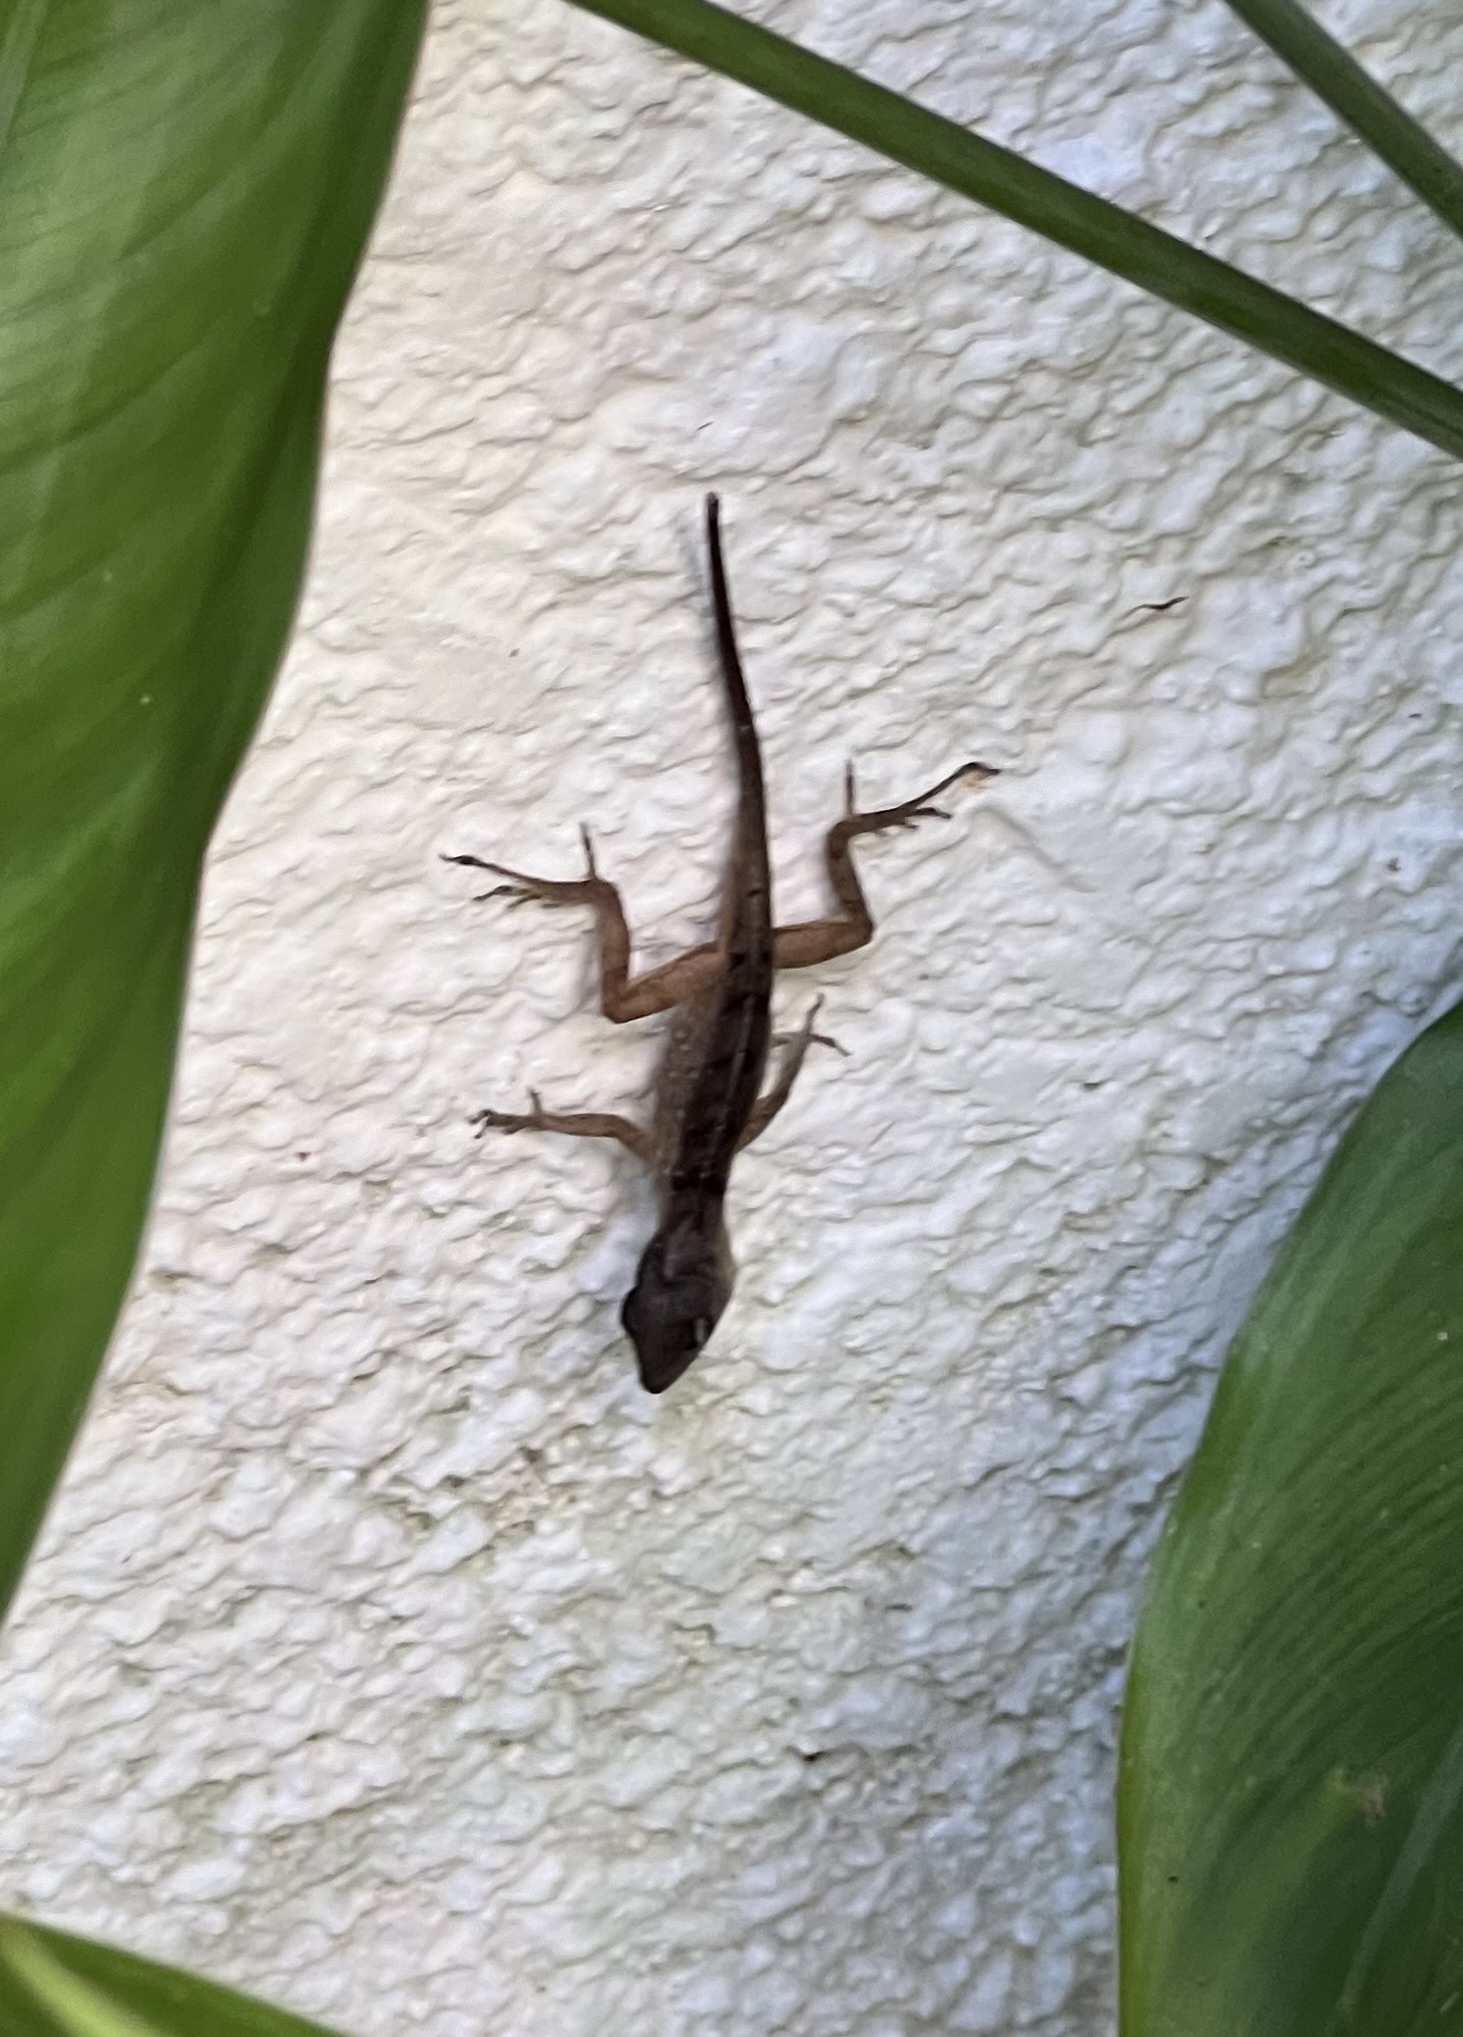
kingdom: Animalia
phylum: Chordata
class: Squamata
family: Dactyloidae
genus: Anolis
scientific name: Anolis sagrei
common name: Brown anole
